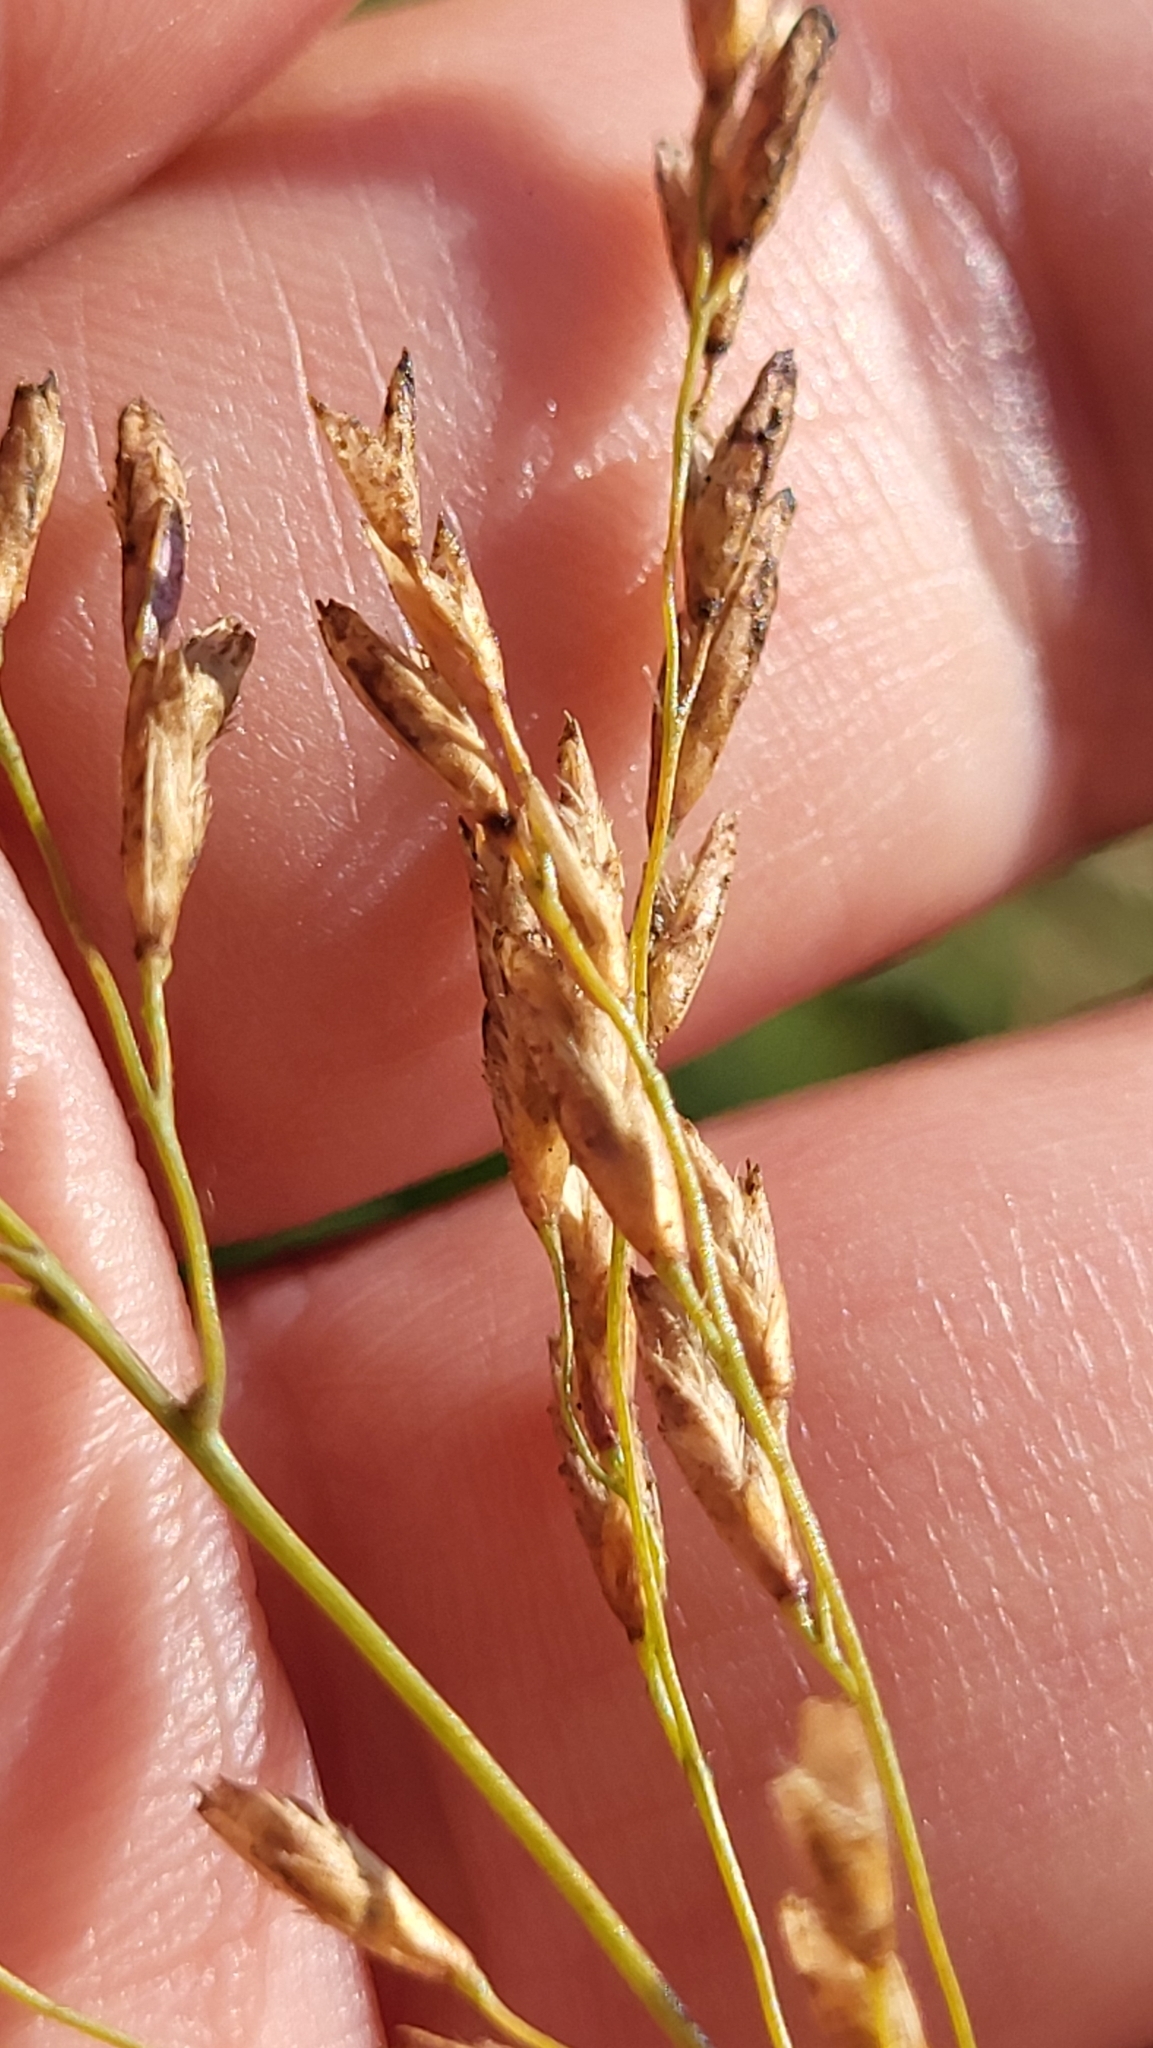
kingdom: Plantae
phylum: Tracheophyta
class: Liliopsida
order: Poales
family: Poaceae
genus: Tridens
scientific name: Tridens flavus
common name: Purpletop
